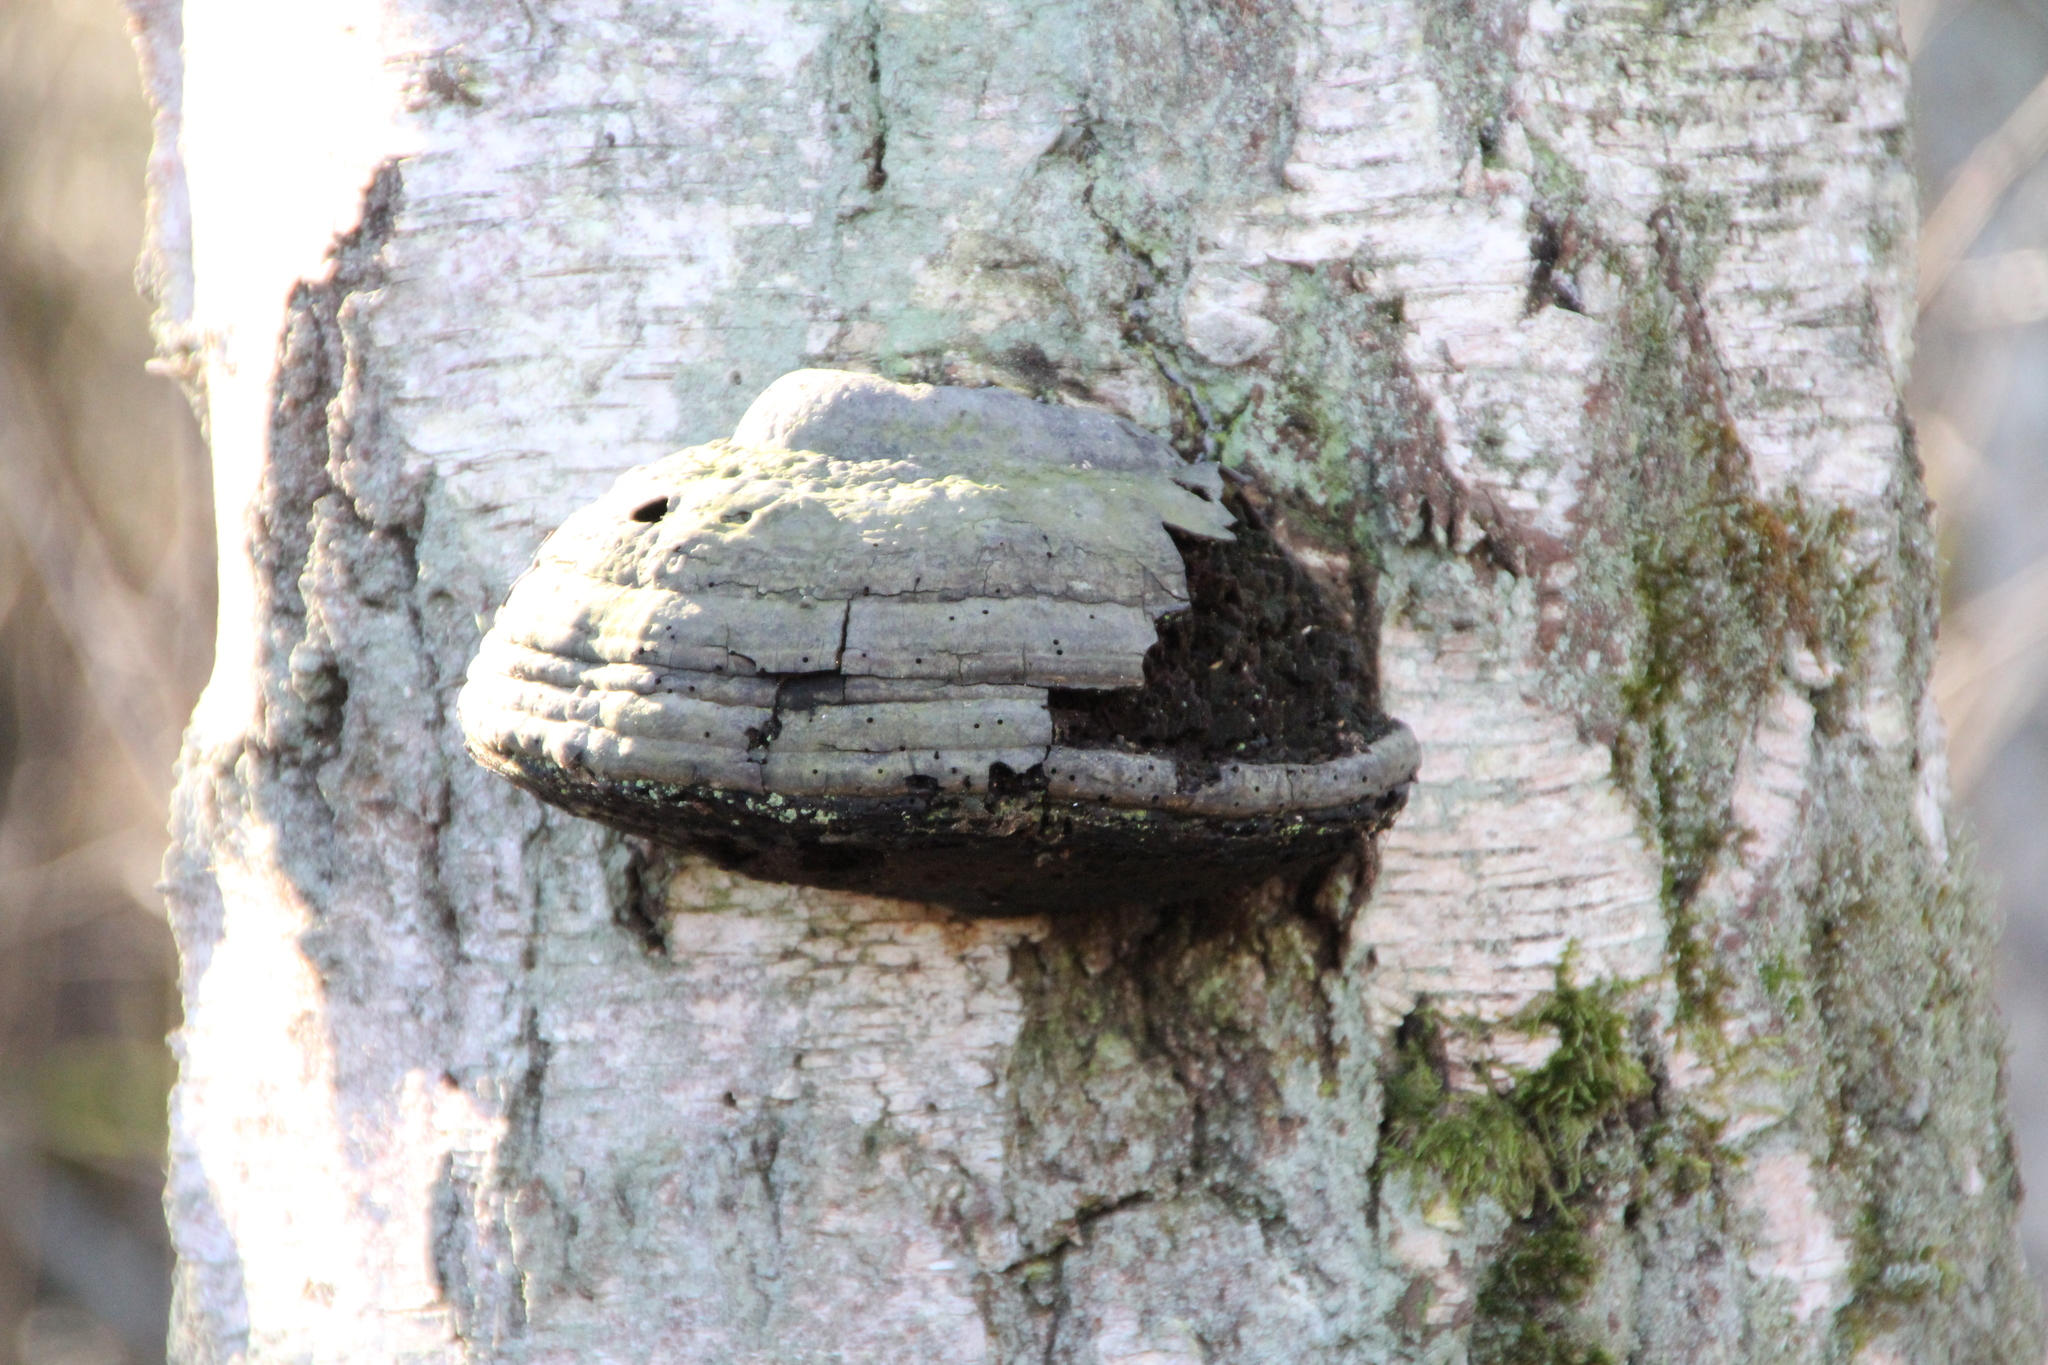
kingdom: Fungi
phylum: Basidiomycota
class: Agaricomycetes
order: Polyporales
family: Polyporaceae
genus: Fomes
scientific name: Fomes fomentarius
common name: Hoof fungus
